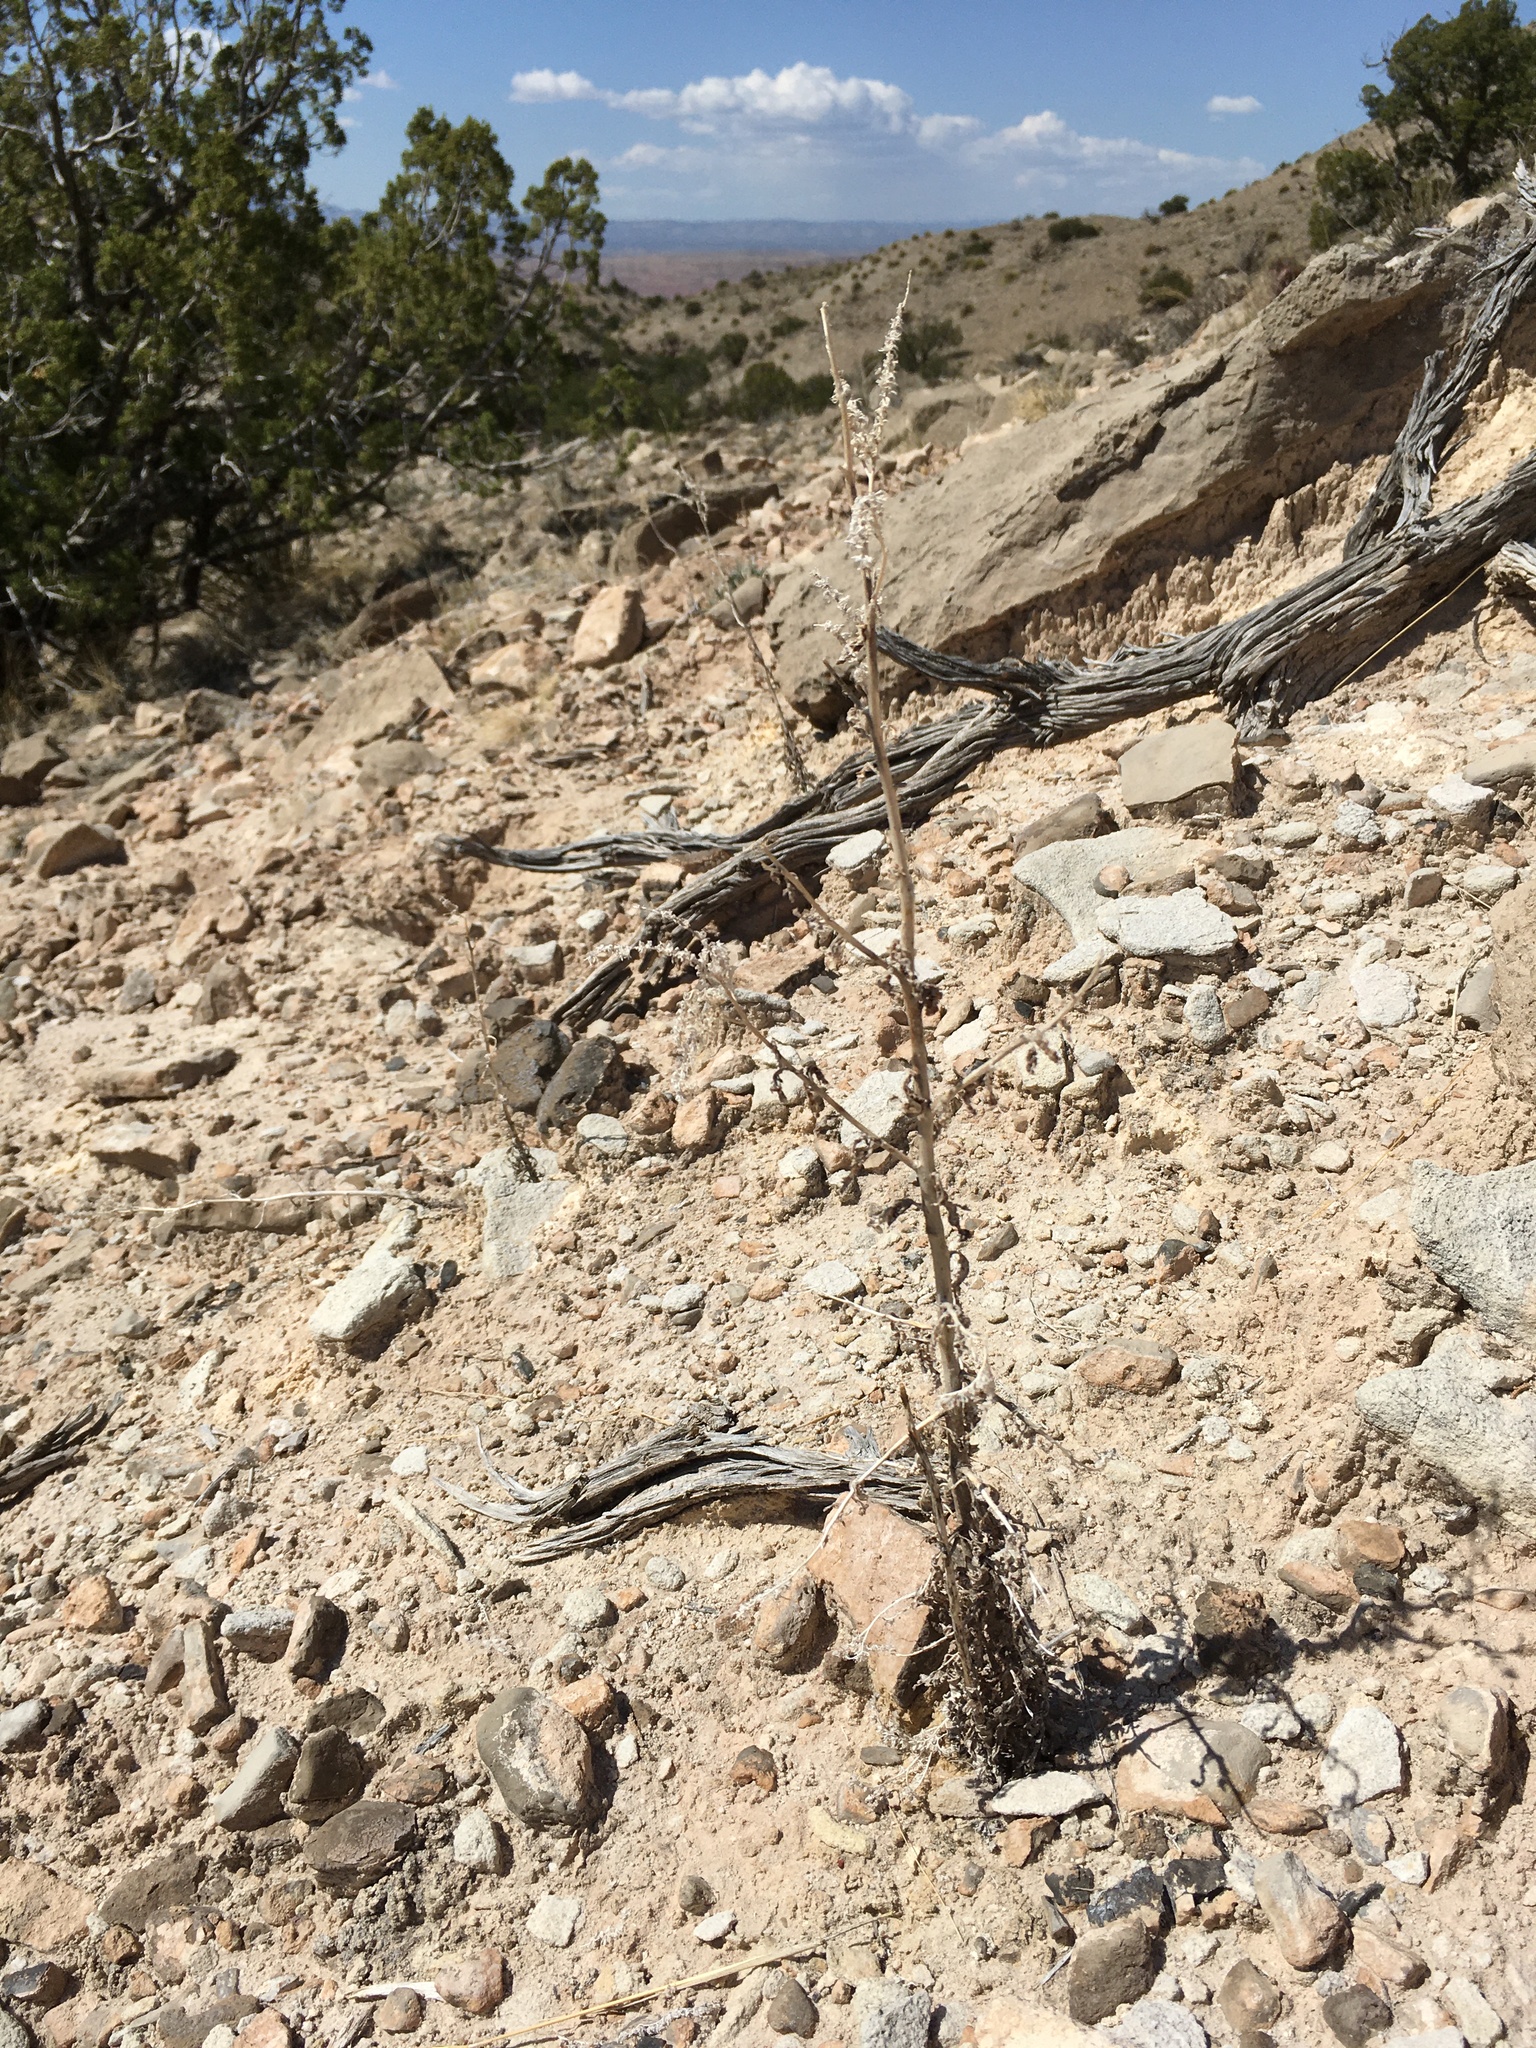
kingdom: Plantae
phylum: Tracheophyta
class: Magnoliopsida
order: Boraginales
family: Hydrophyllaceae
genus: Phacelia
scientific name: Phacelia sivinskii
